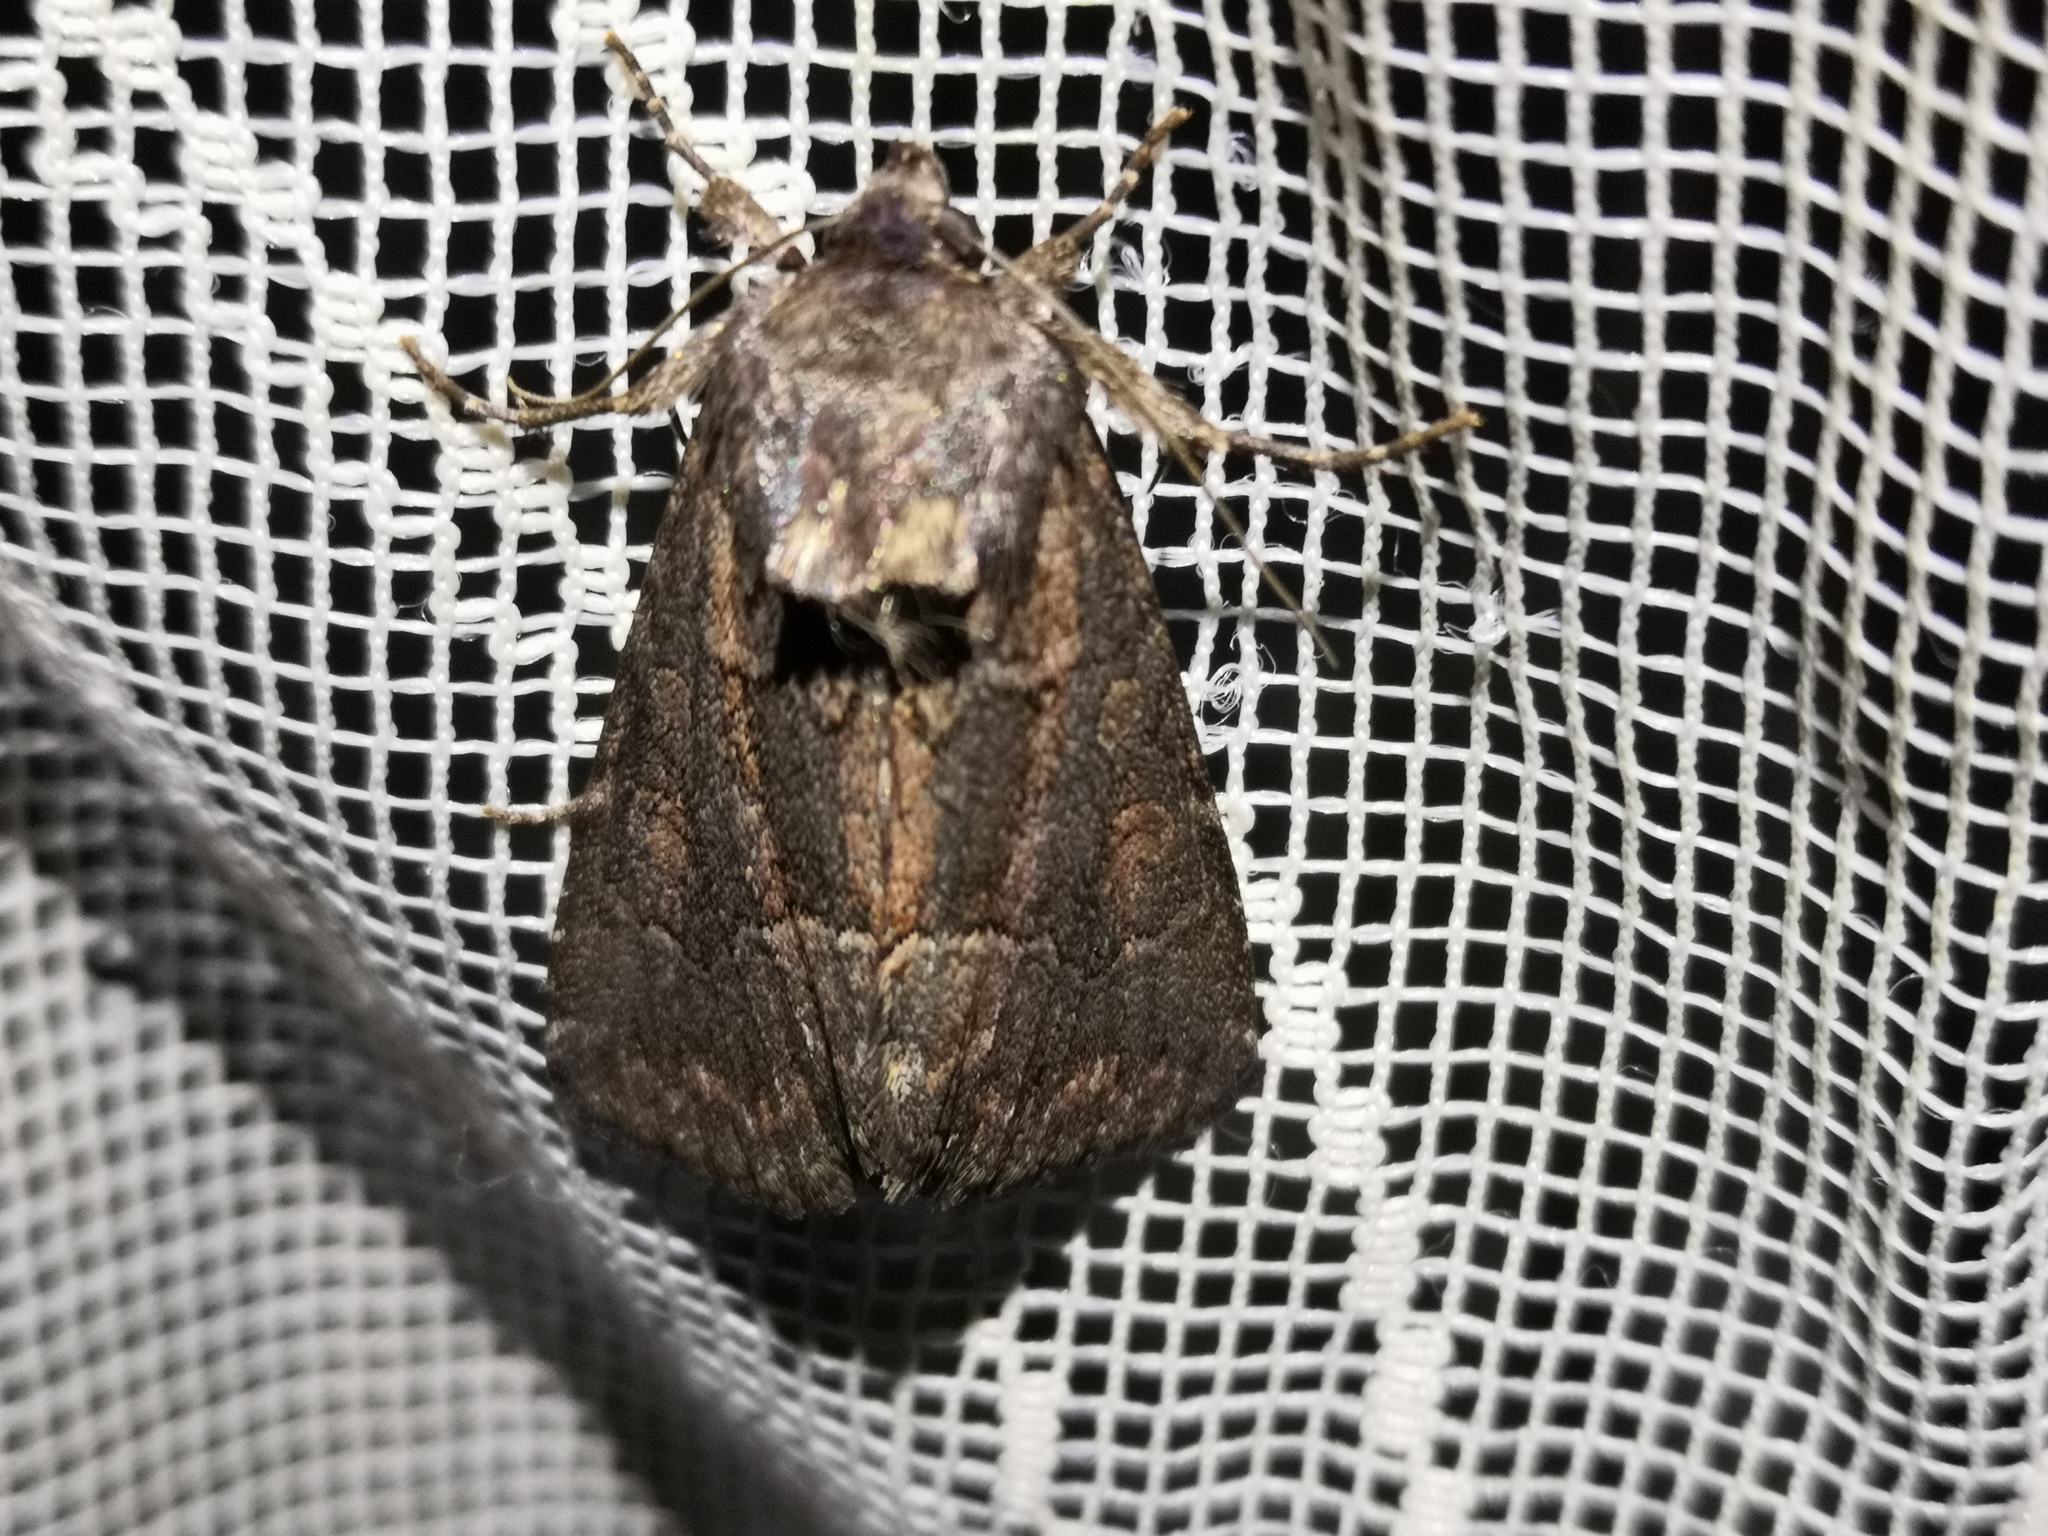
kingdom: Animalia
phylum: Arthropoda
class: Insecta
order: Lepidoptera
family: Noctuidae
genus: Thalpophila
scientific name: Thalpophila matura
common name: Straw underwing
